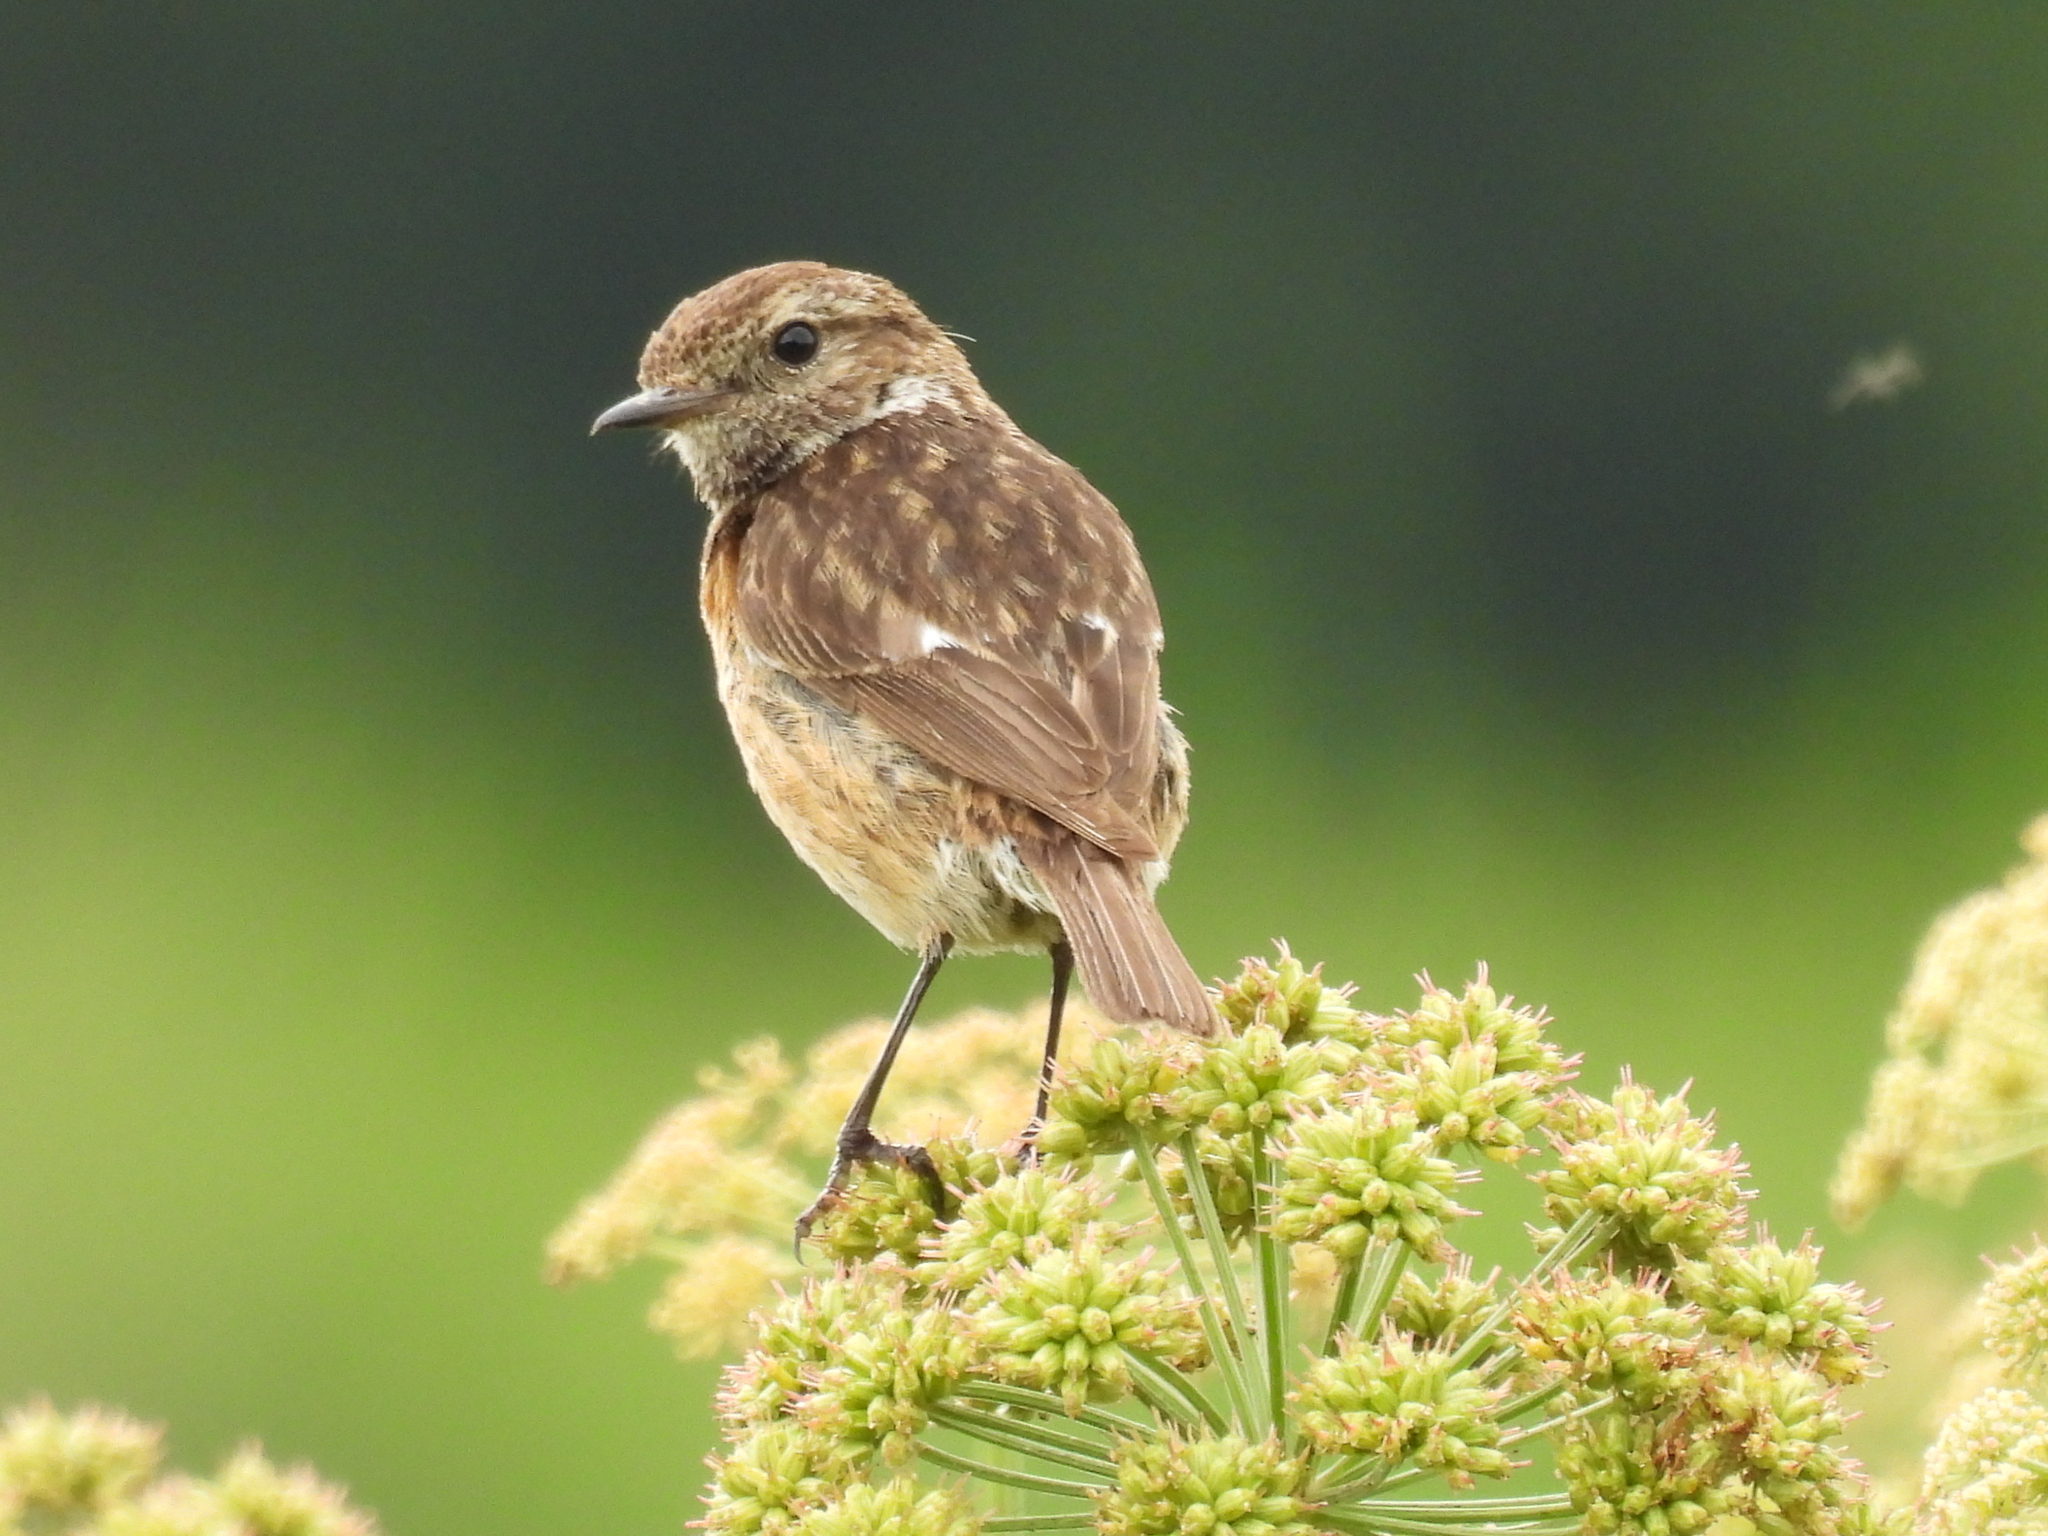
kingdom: Animalia
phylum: Chordata
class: Aves
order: Passeriformes
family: Muscicapidae
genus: Saxicola
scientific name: Saxicola rubicola
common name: European stonechat
